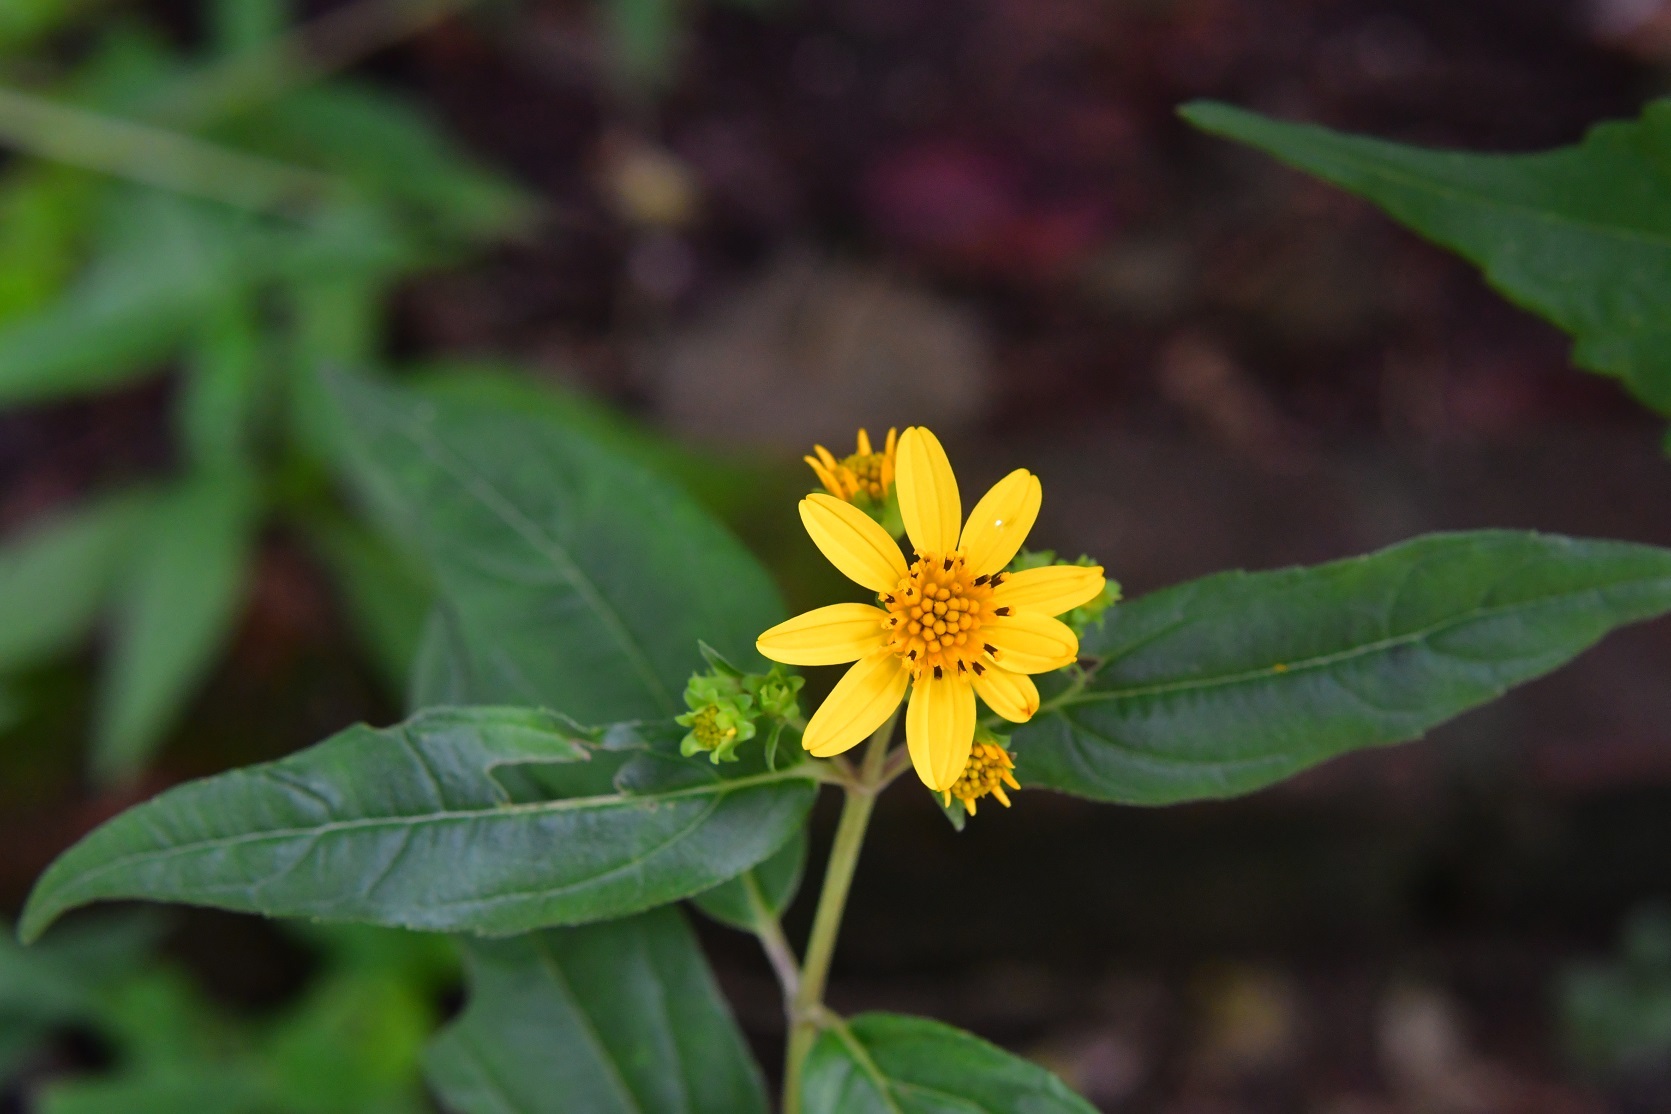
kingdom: Plantae
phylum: Tracheophyta
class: Magnoliopsida
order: Asterales
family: Asteraceae
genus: Perymenium
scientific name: Perymenium ghiesbreghtii
